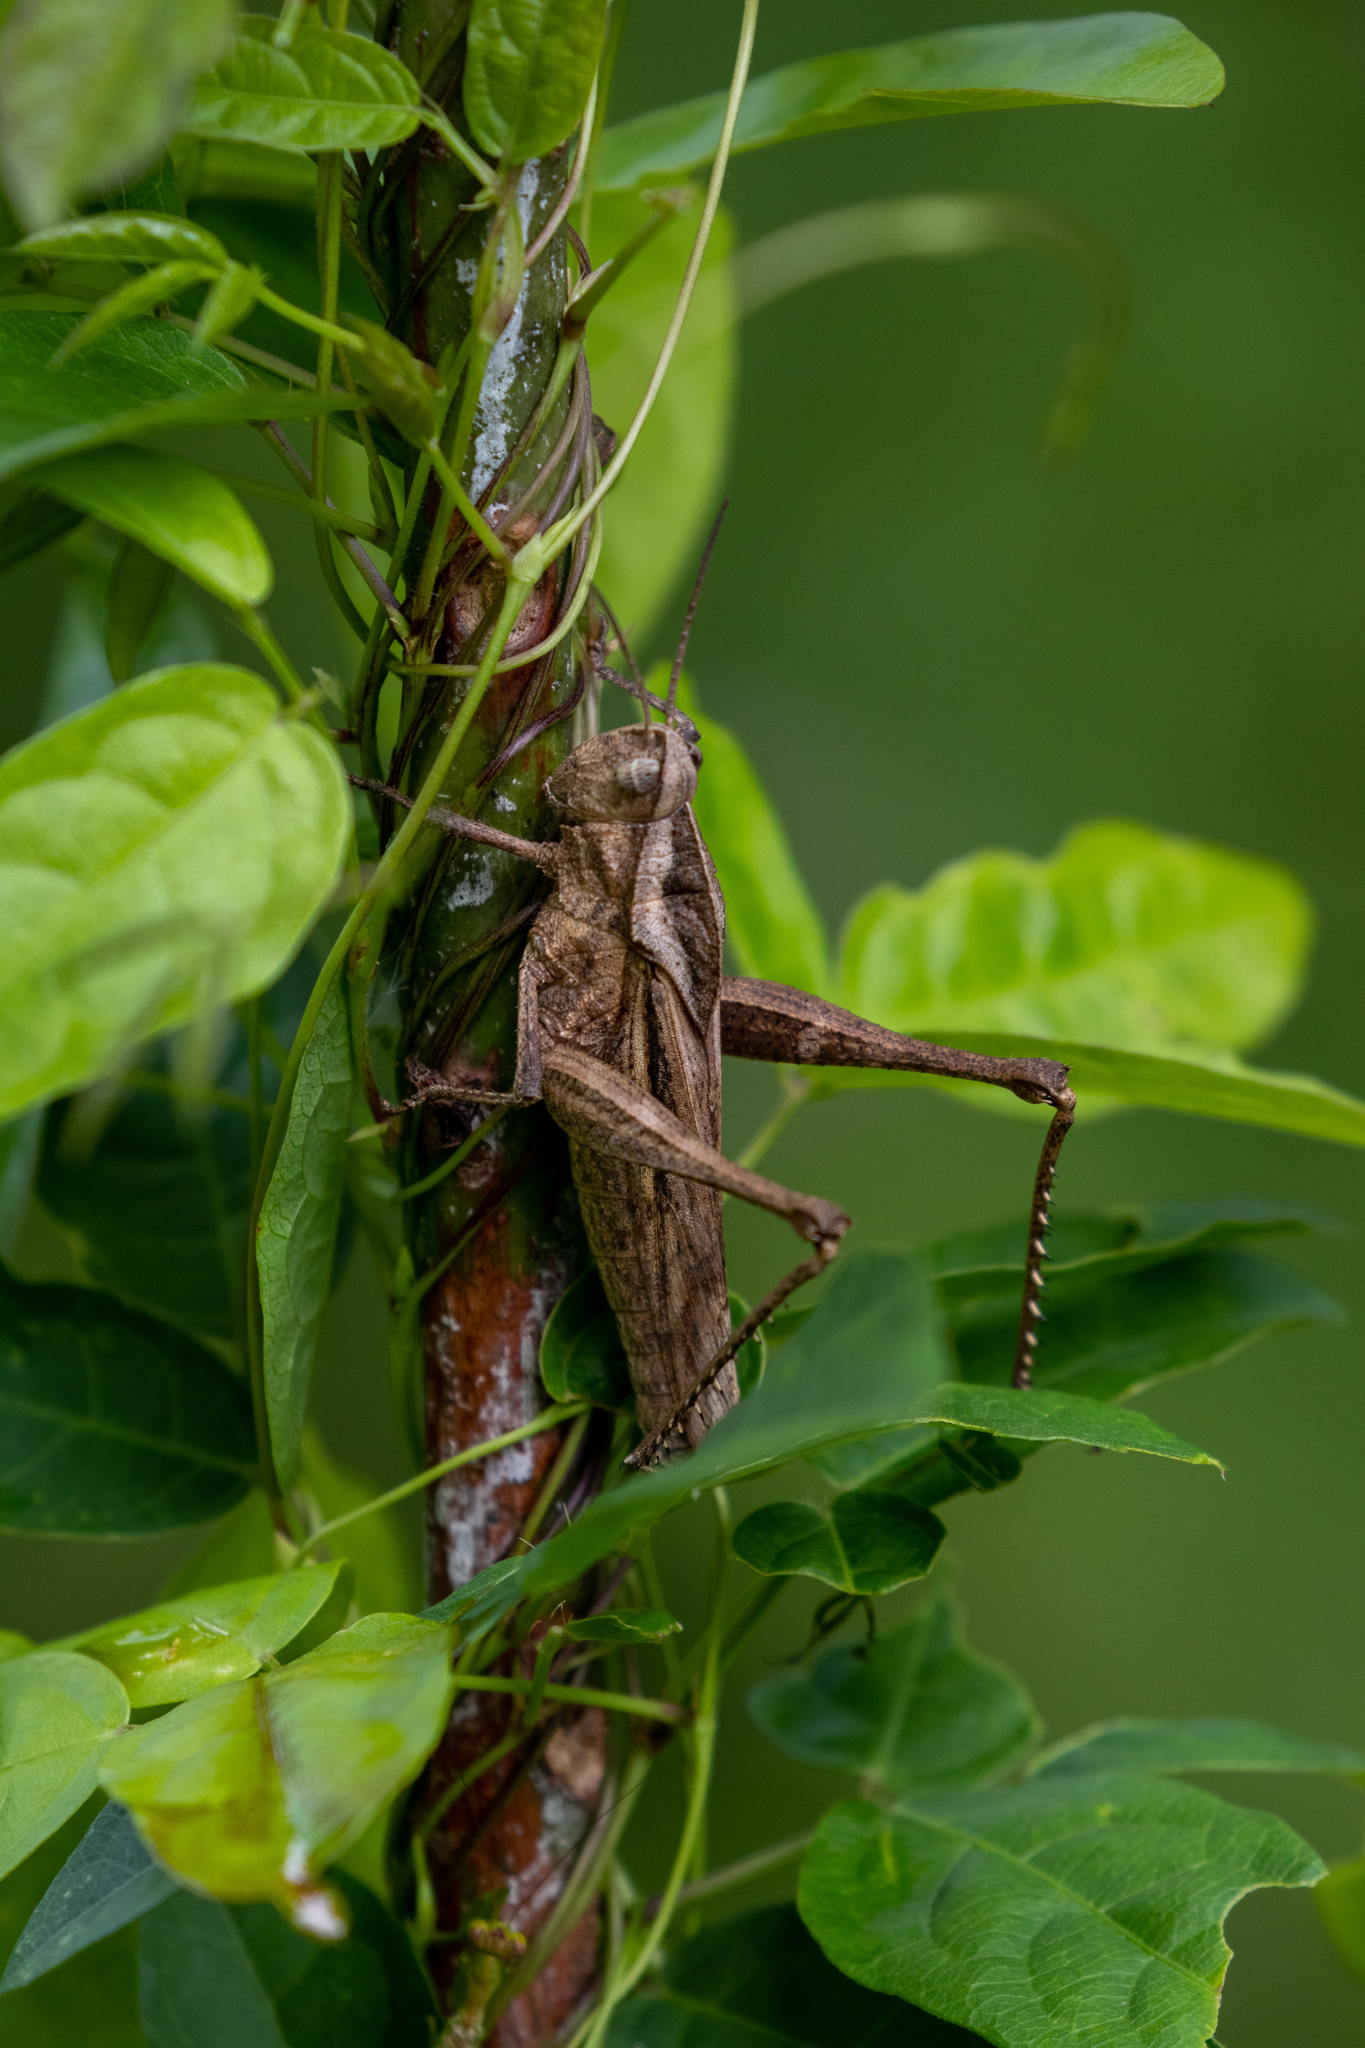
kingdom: Animalia
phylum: Arthropoda
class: Insecta
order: Orthoptera
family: Romaleidae
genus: Xyleus
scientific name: Xyleus discoideus
